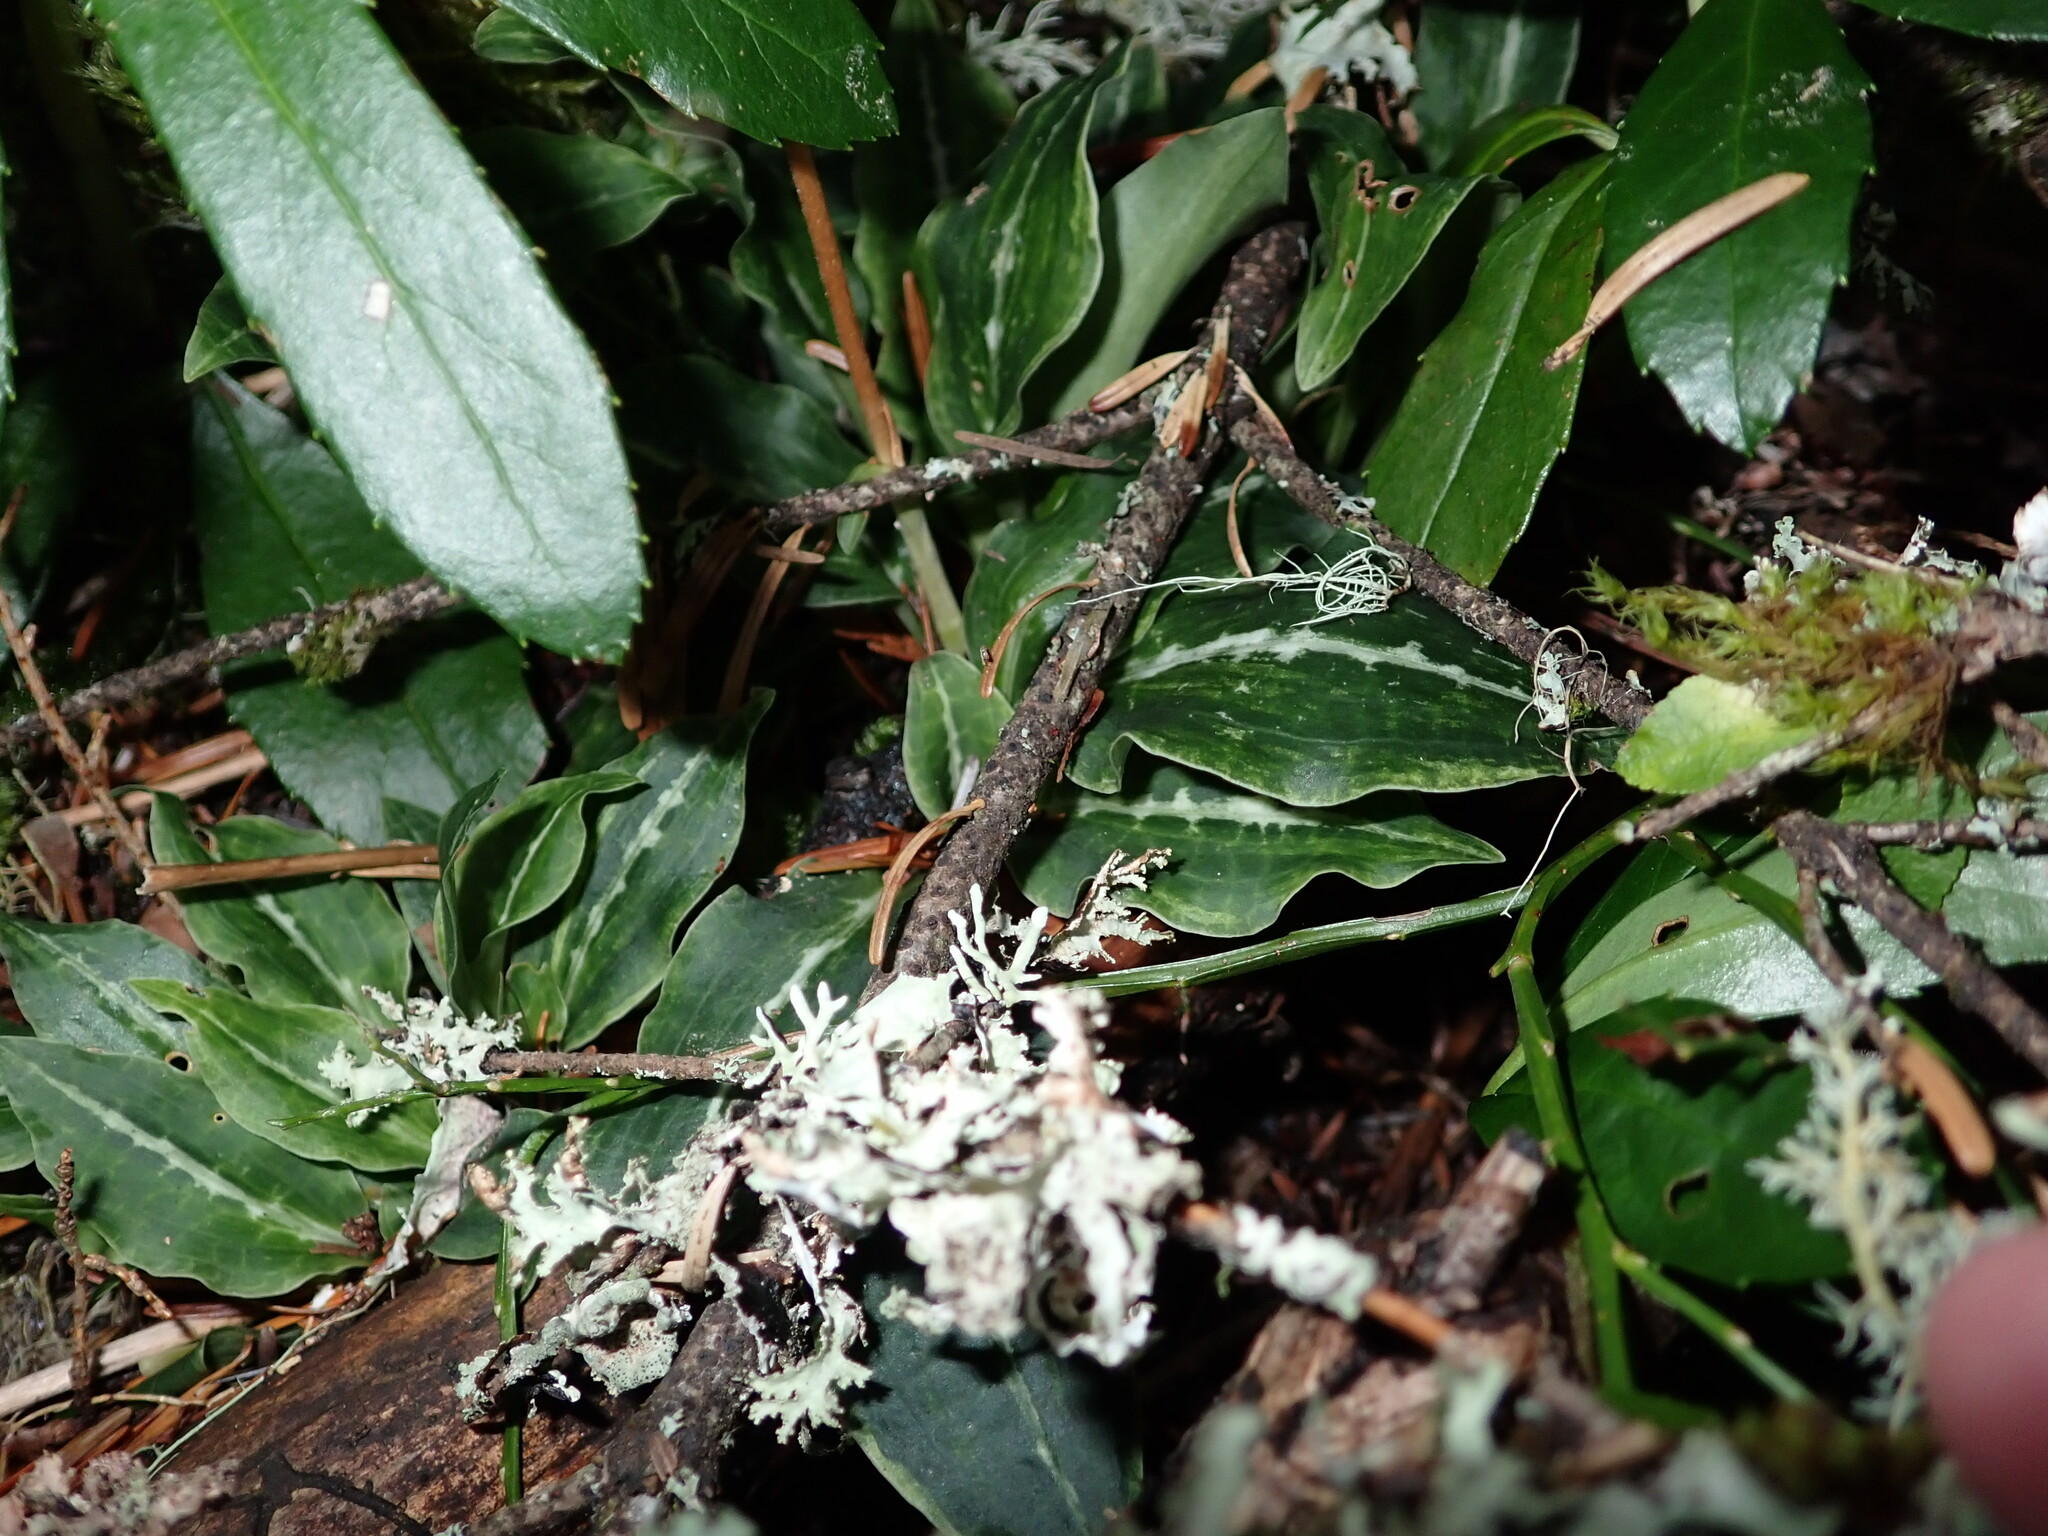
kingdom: Plantae
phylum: Tracheophyta
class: Liliopsida
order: Asparagales
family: Orchidaceae
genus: Goodyera
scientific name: Goodyera oblongifolia
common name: Giant rattlesnake-plantain
